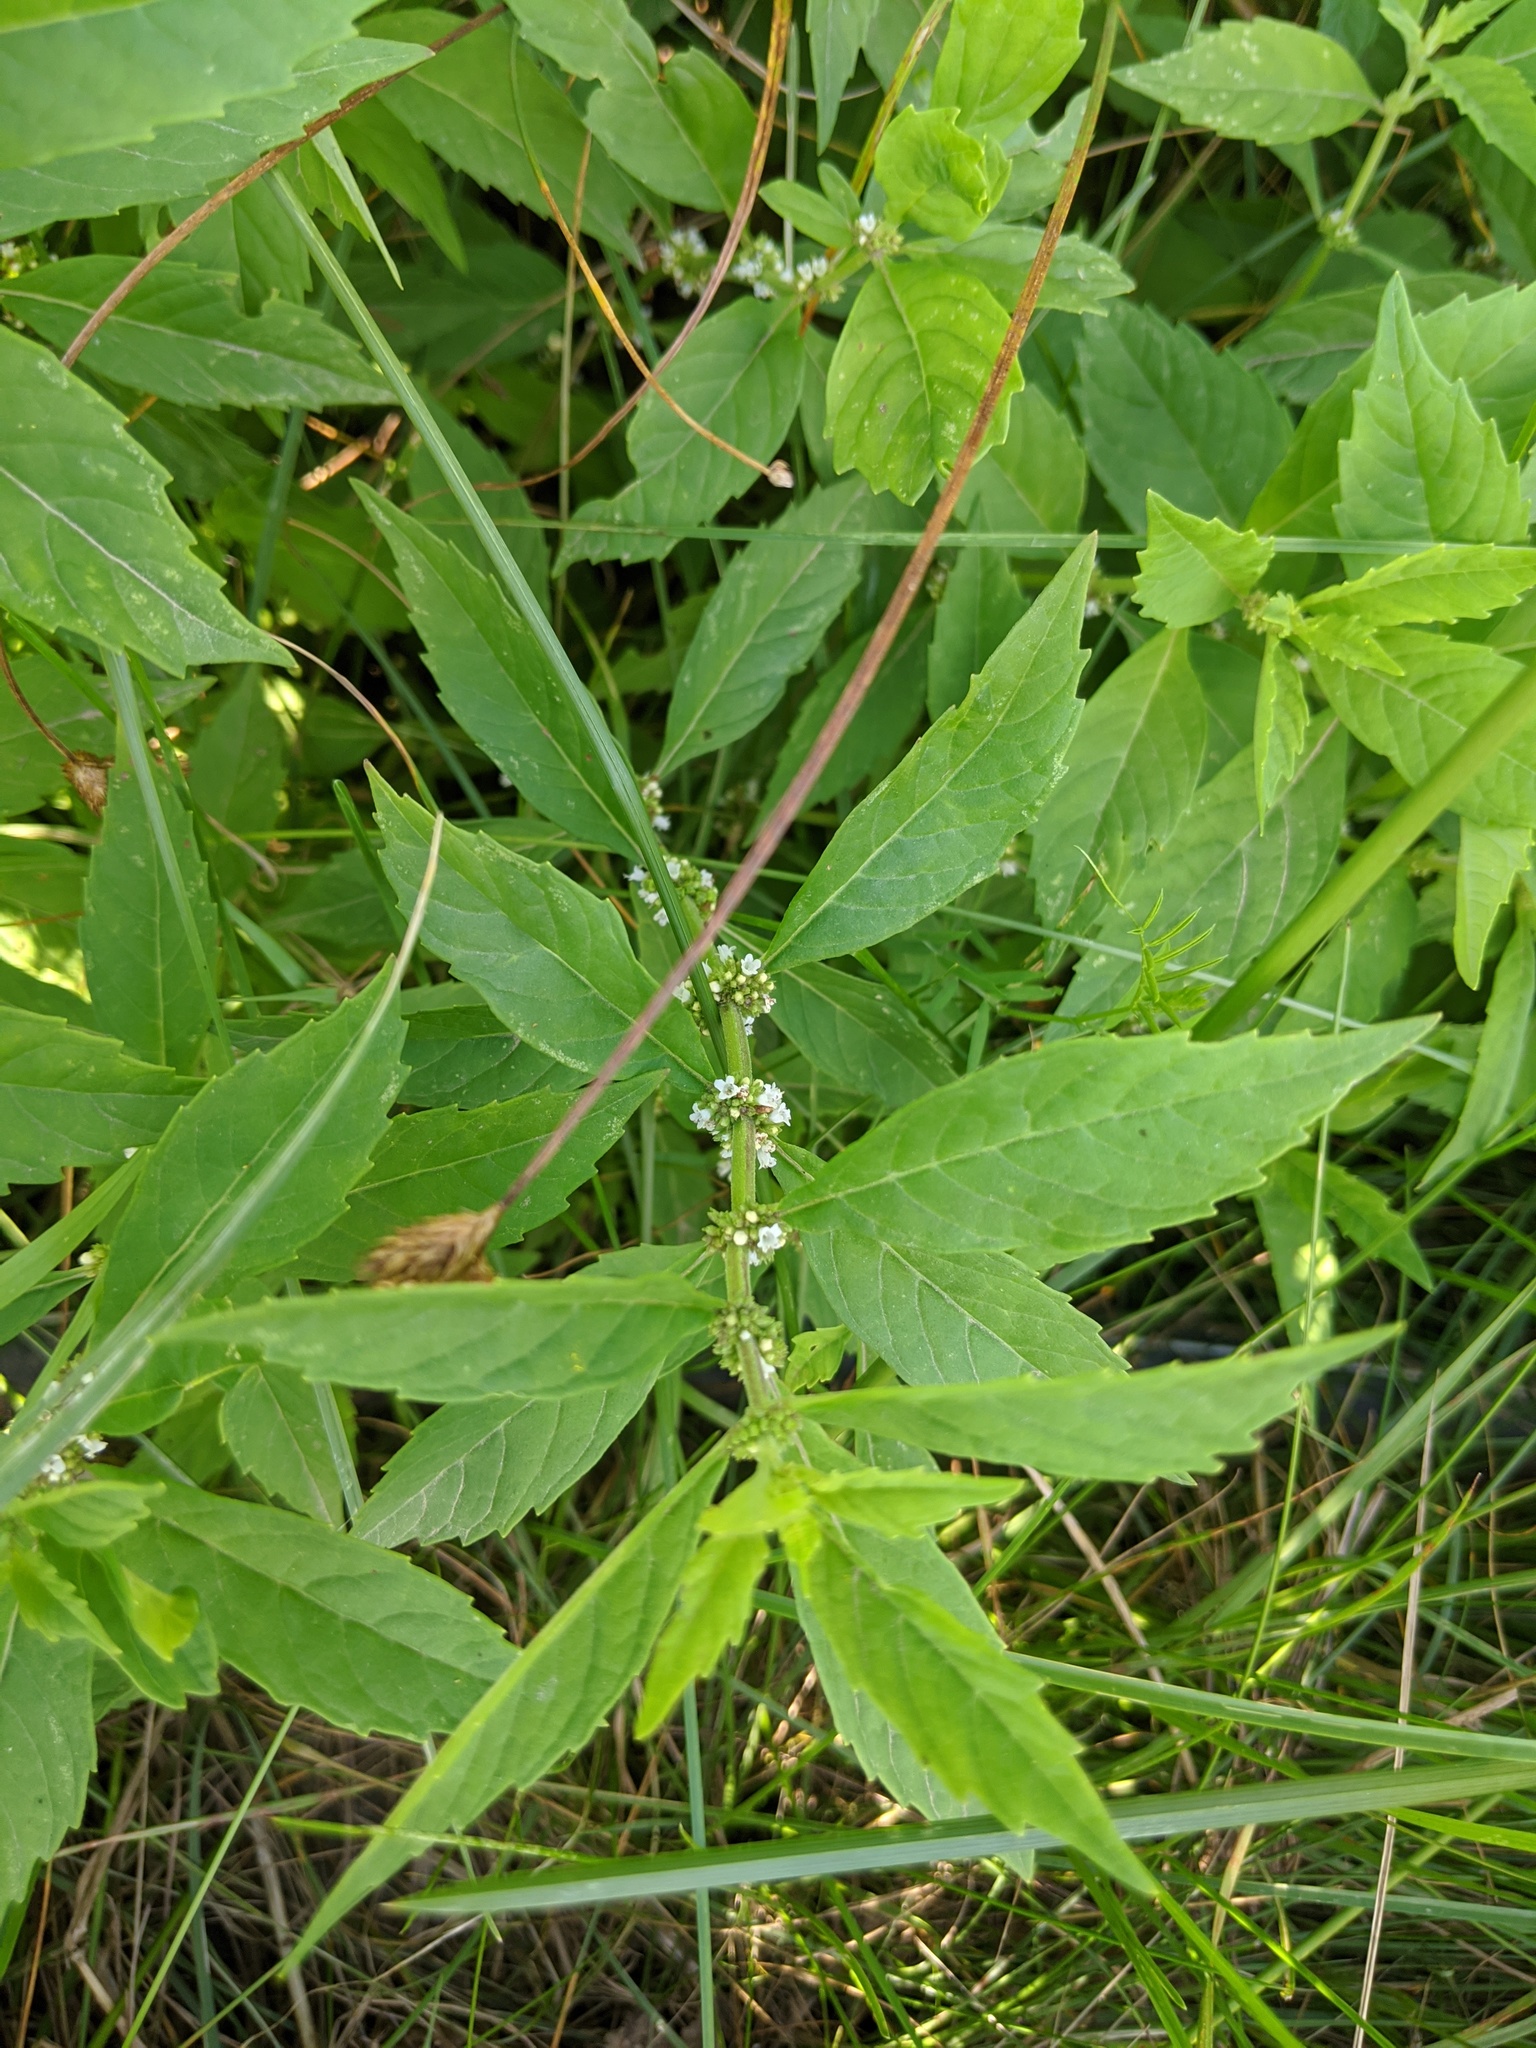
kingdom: Plantae
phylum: Tracheophyta
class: Magnoliopsida
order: Lamiales
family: Lamiaceae
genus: Lycopus
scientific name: Lycopus uniflorus
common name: Northern bugleweed
